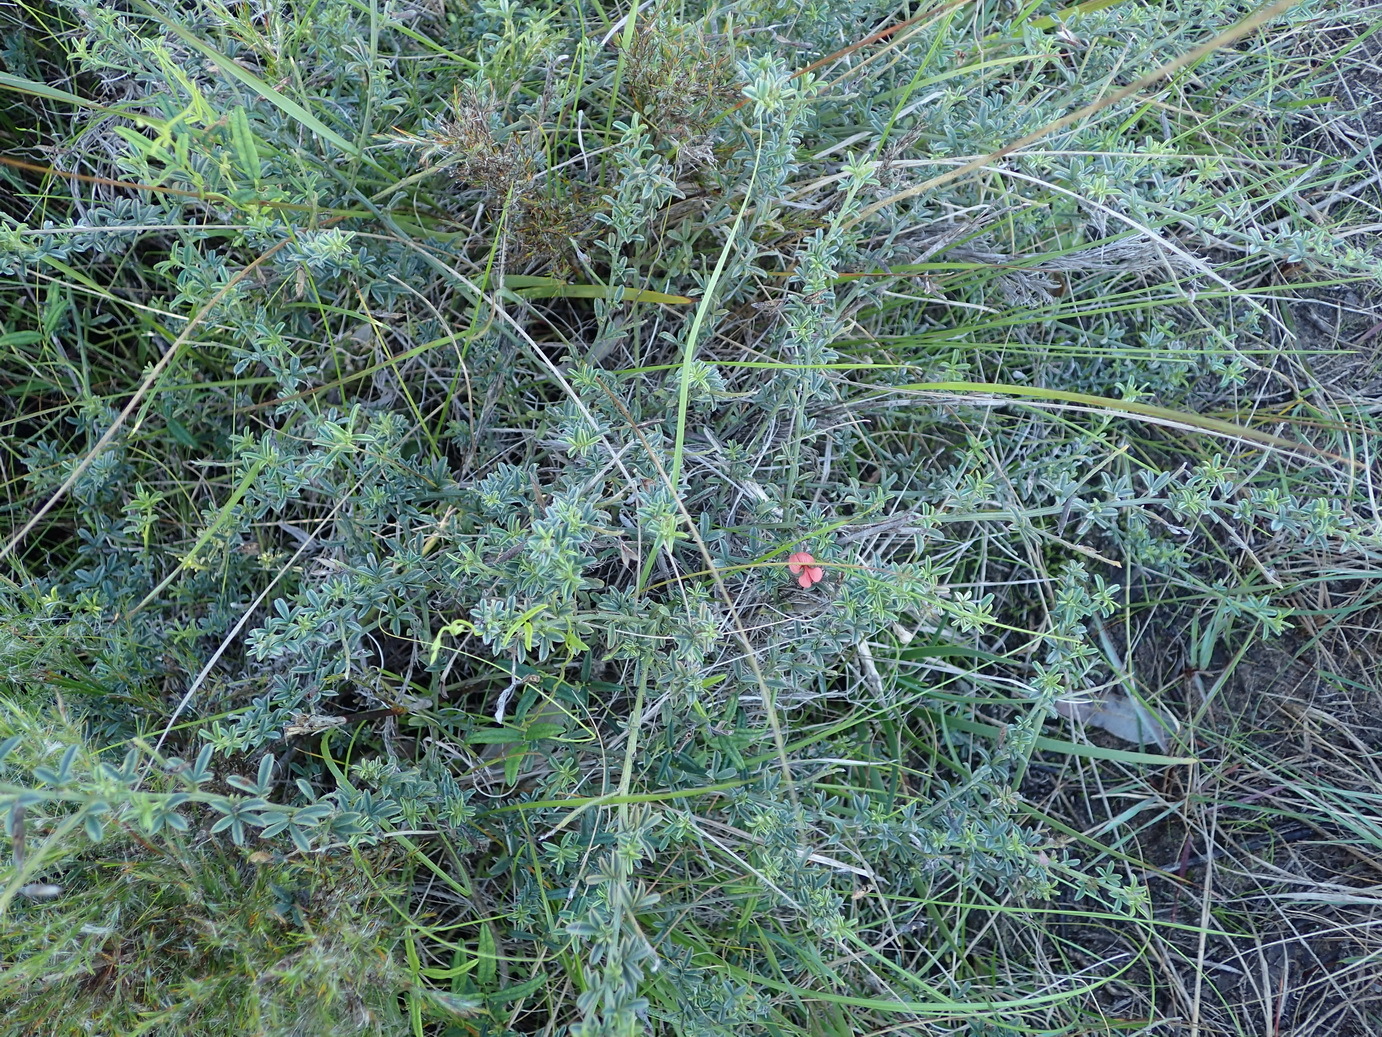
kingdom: Plantae
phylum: Tracheophyta
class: Magnoliopsida
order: Fabales
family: Fabaceae
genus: Indigofera
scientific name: Indigofera priorii
